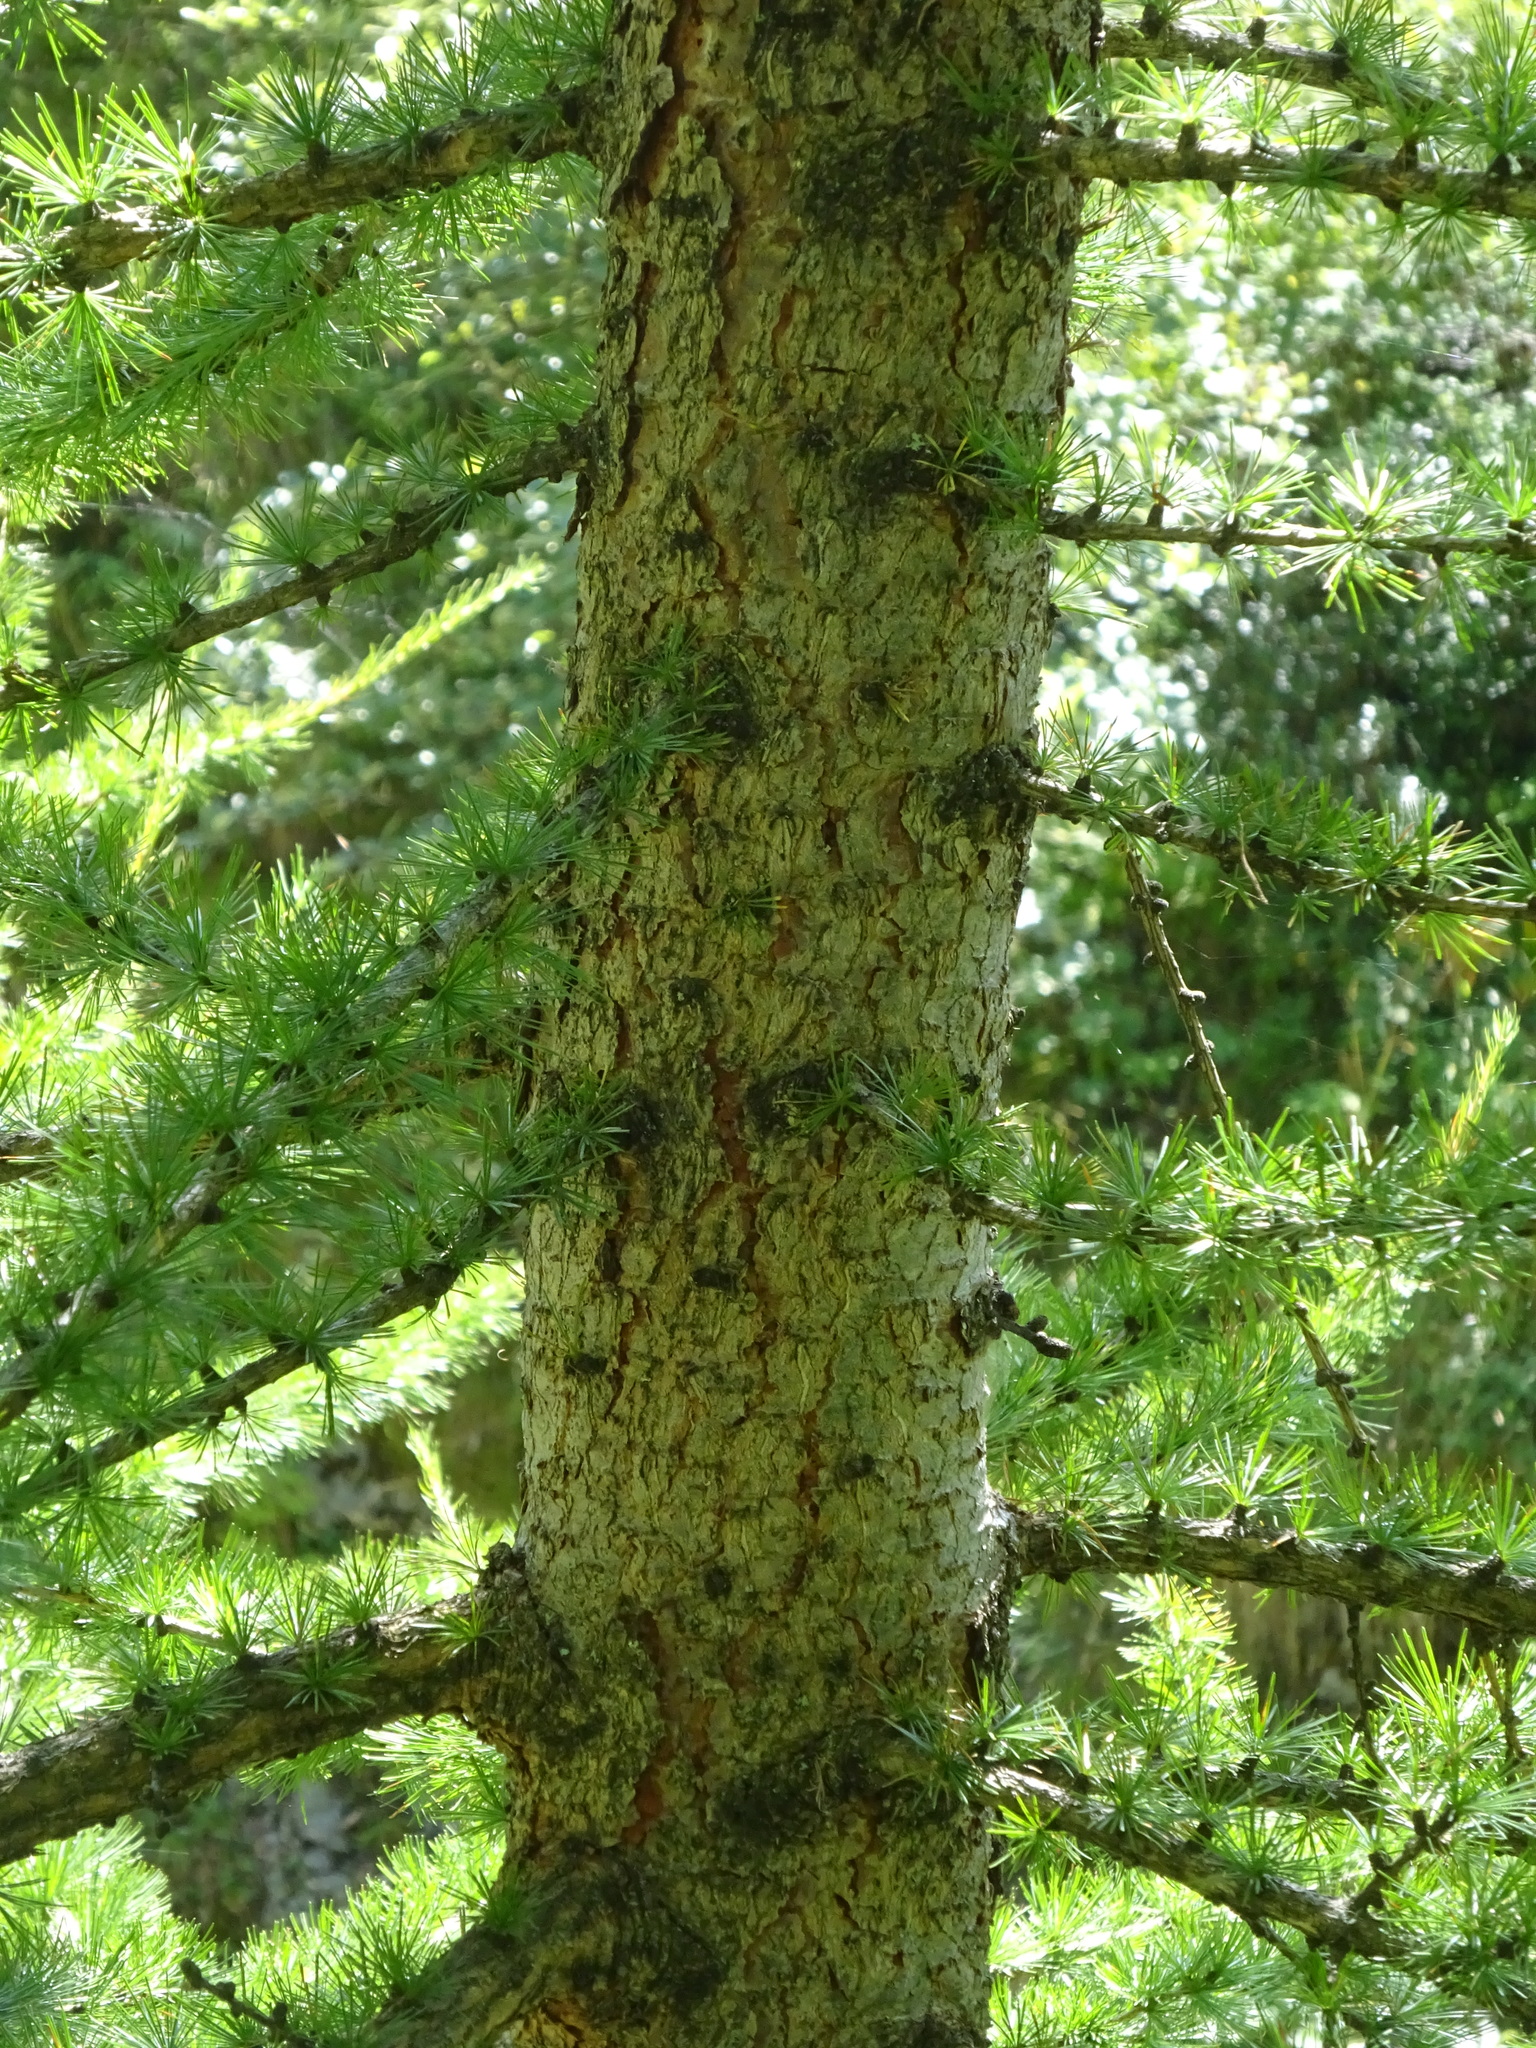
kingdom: Plantae
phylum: Tracheophyta
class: Pinopsida
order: Pinales
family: Pinaceae
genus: Larix
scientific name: Larix decidua
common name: European larch
